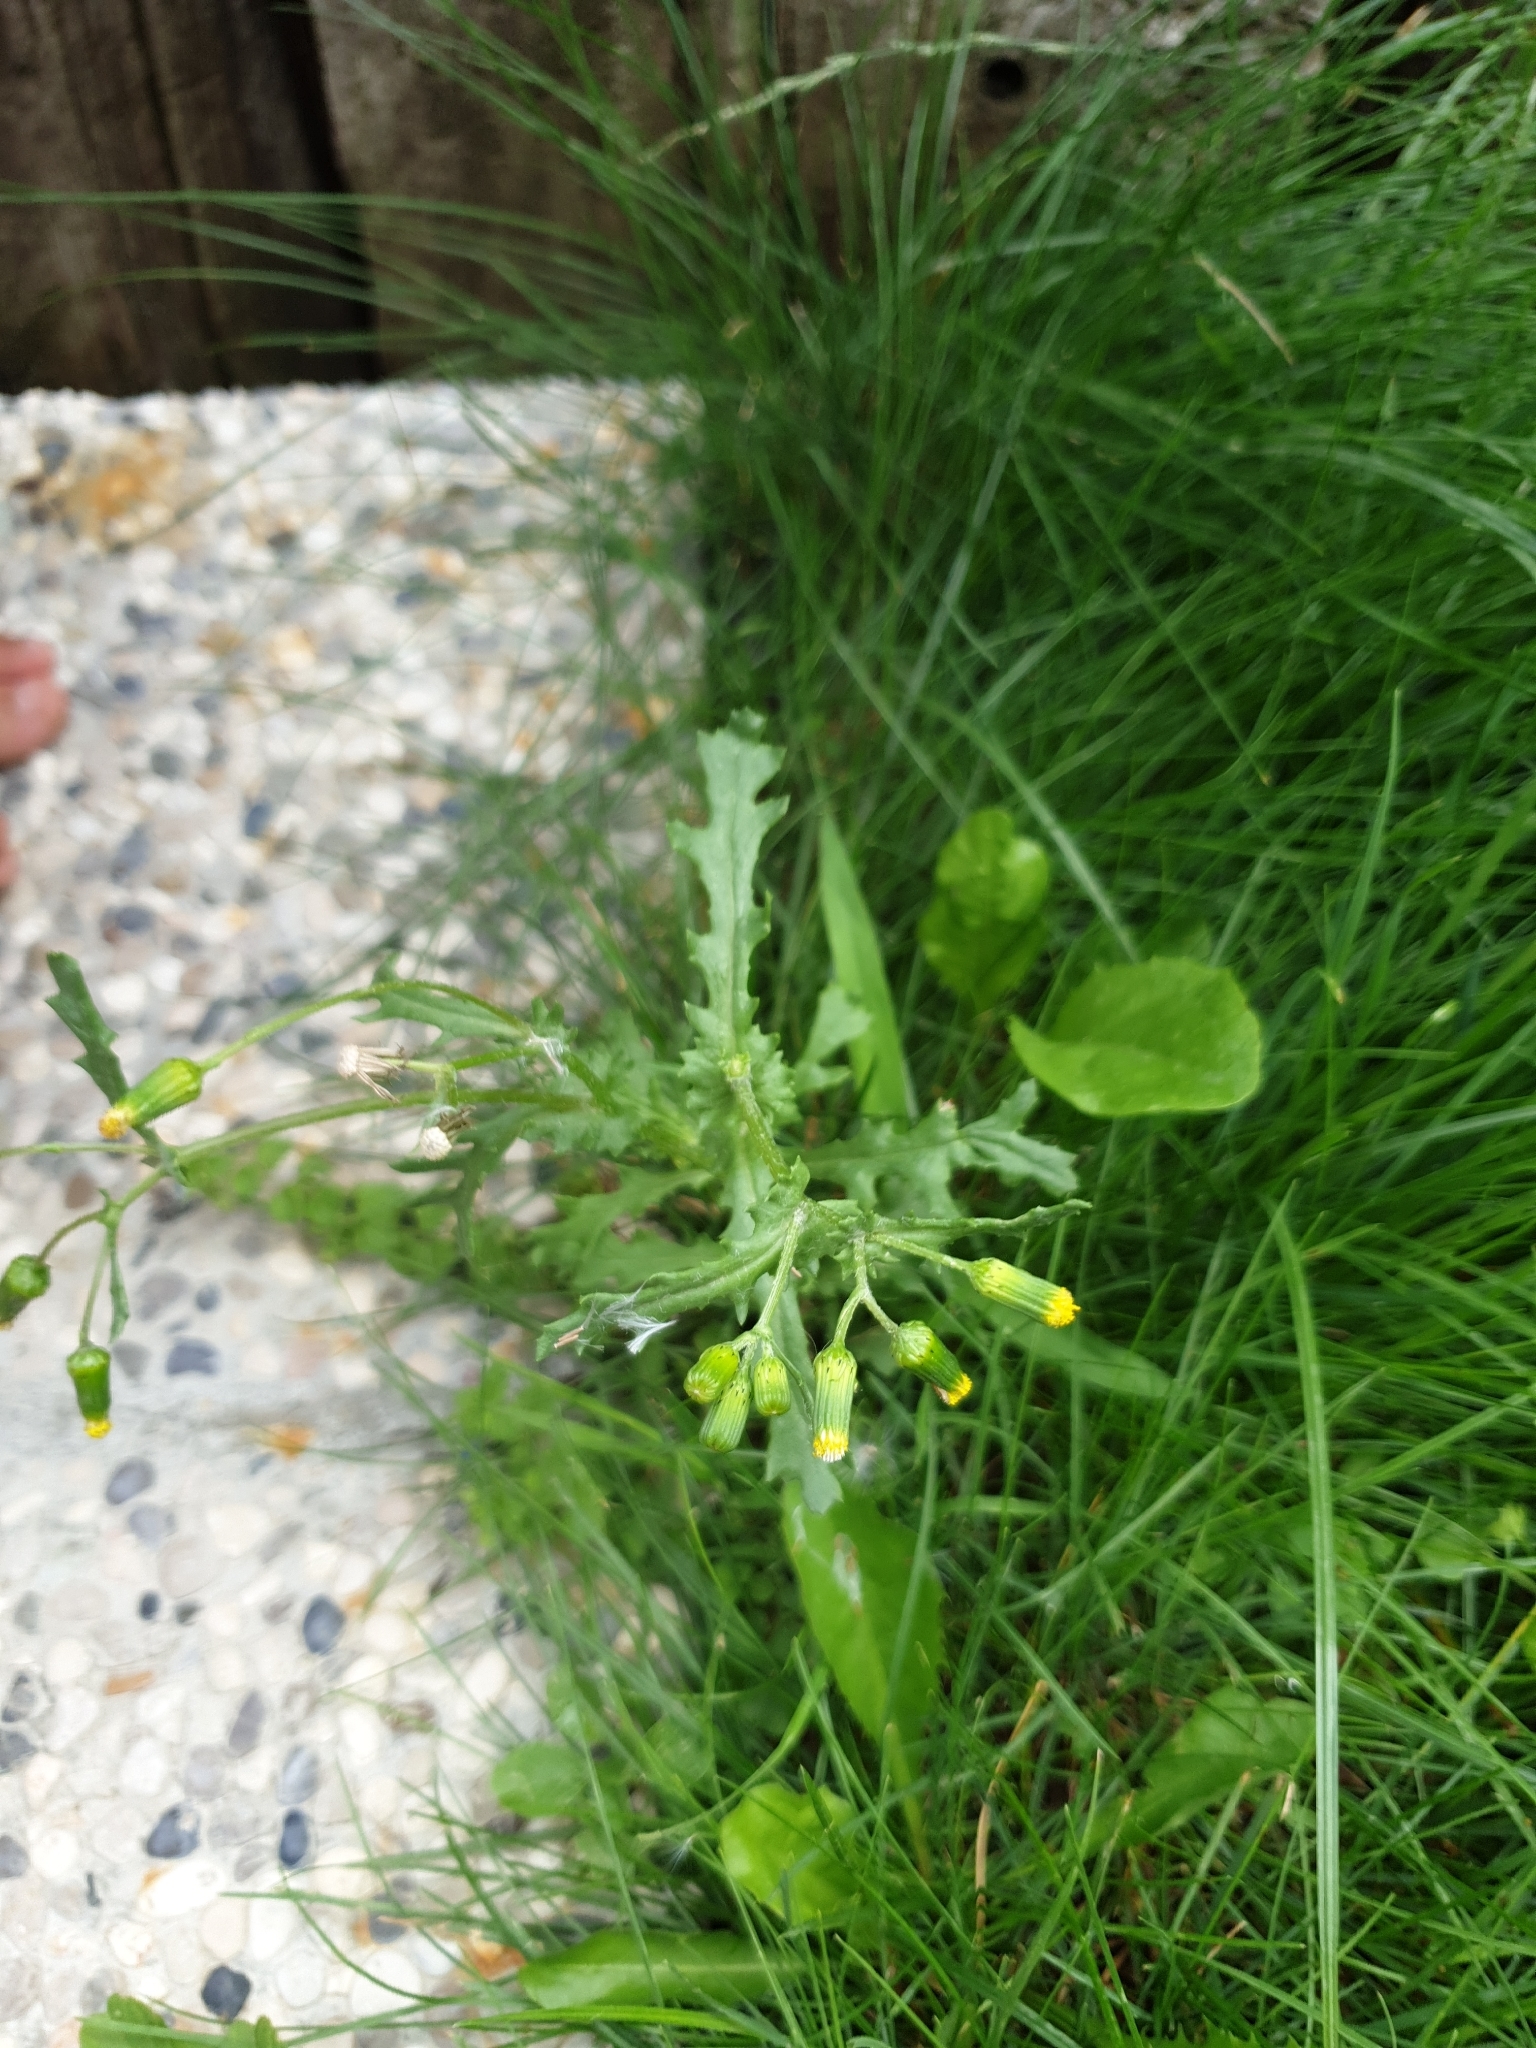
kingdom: Plantae
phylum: Tracheophyta
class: Magnoliopsida
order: Asterales
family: Asteraceae
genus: Senecio
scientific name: Senecio vulgaris
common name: Old-man-in-the-spring
